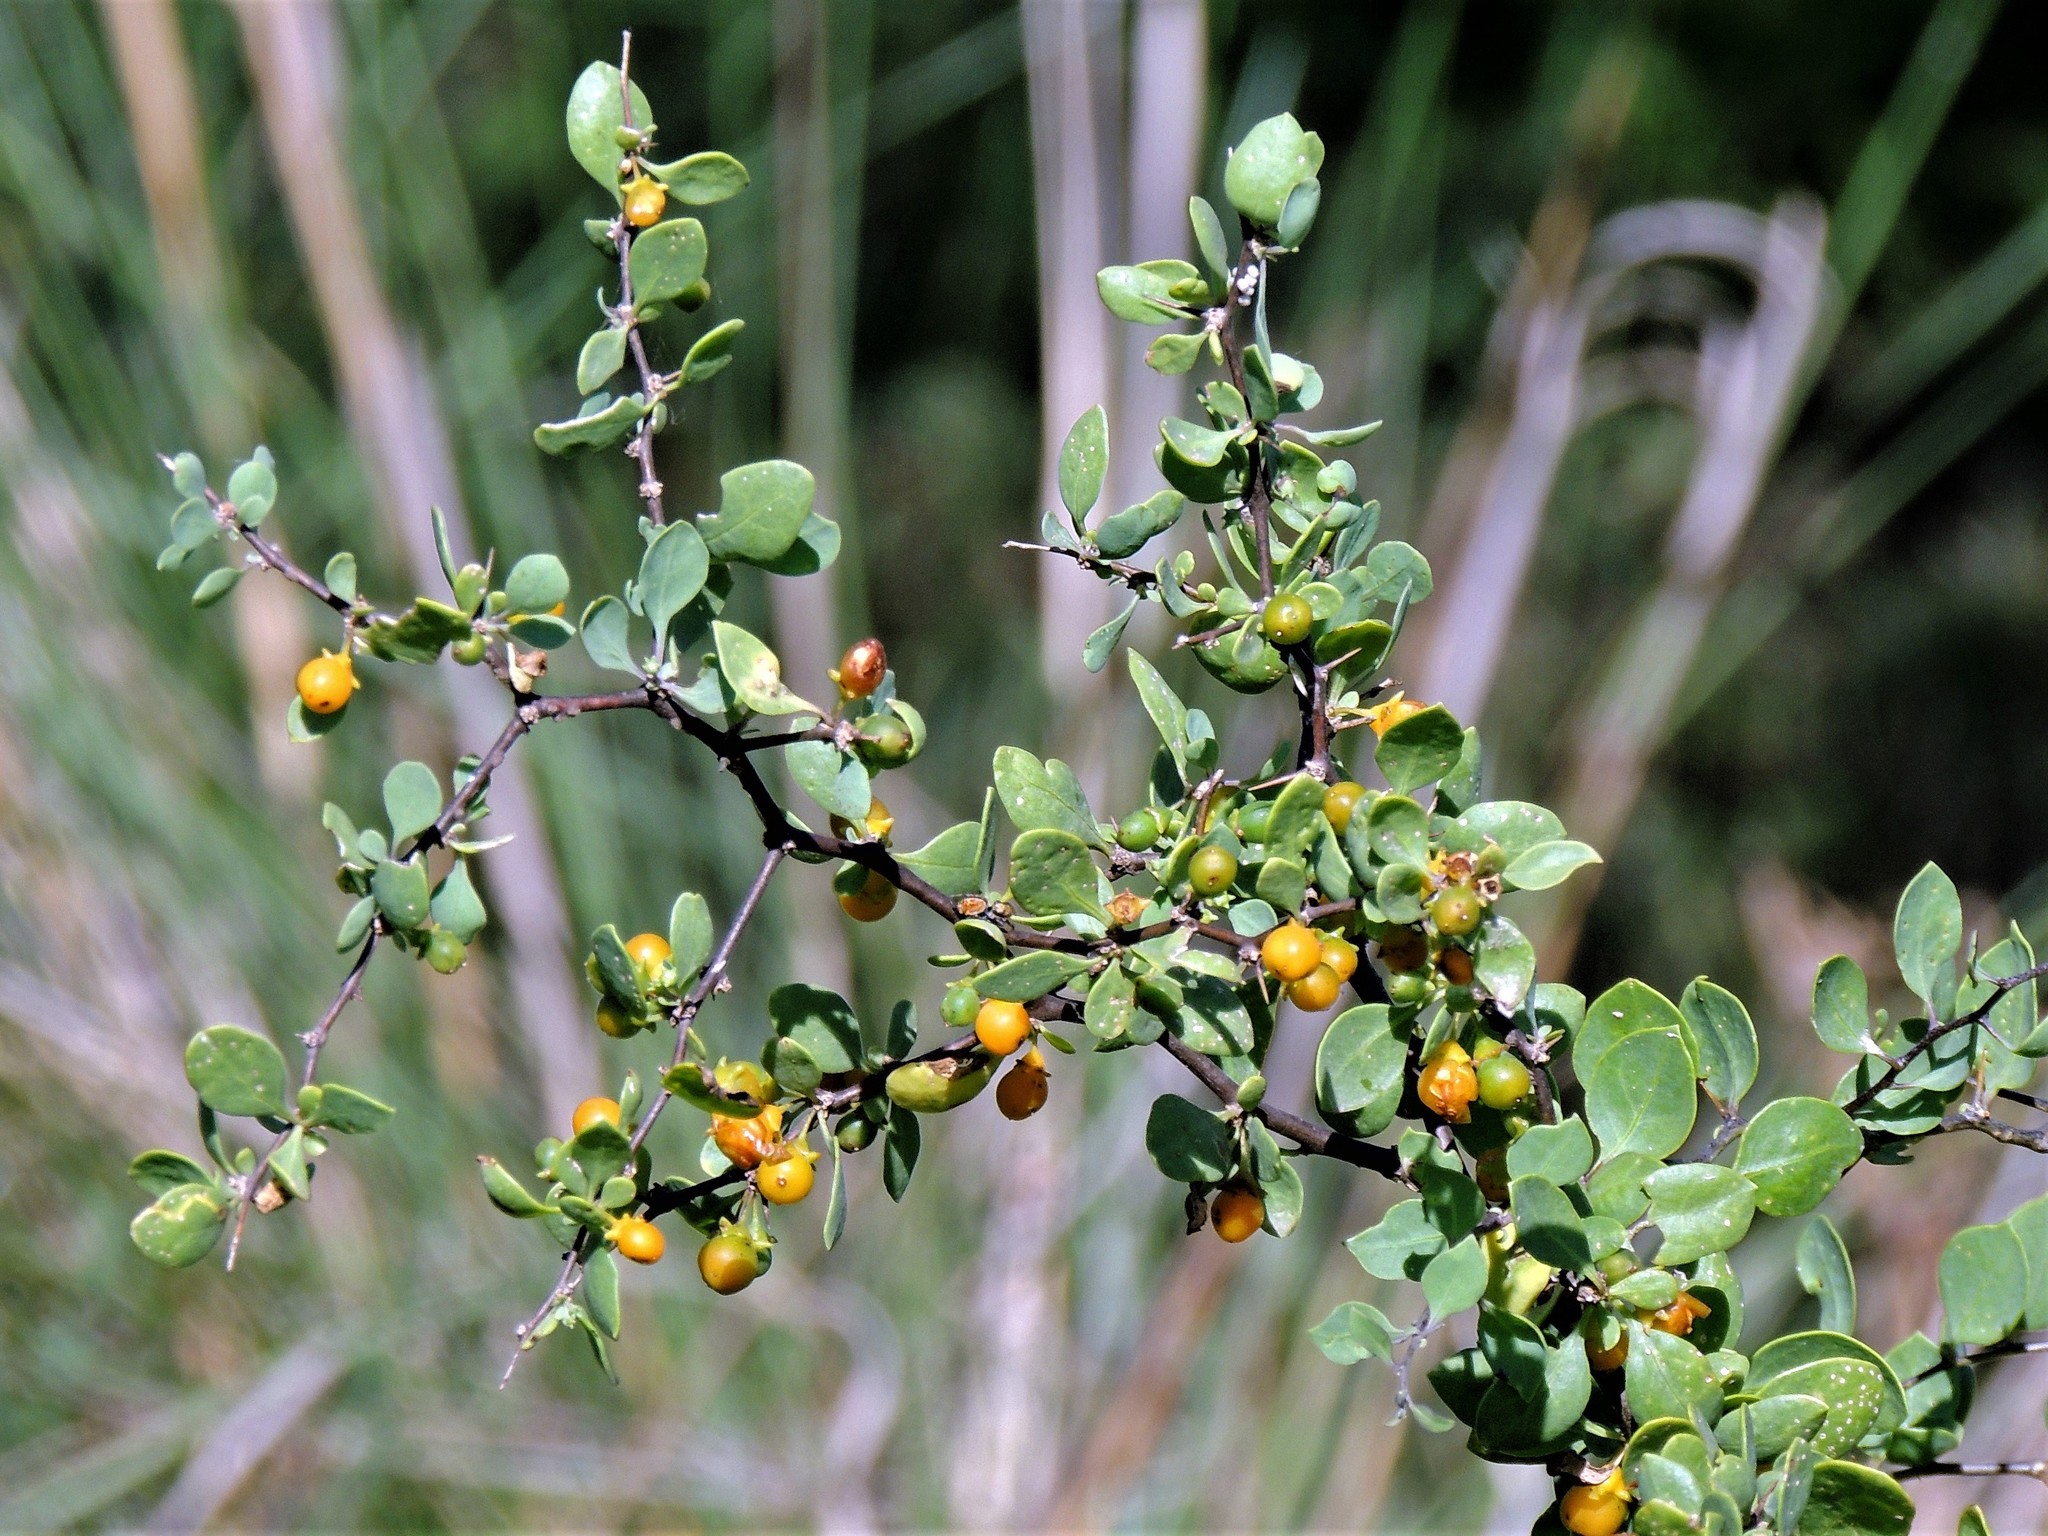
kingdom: Plantae
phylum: Tracheophyta
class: Magnoliopsida
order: Solanales
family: Solanaceae
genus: Lycium
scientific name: Lycium boerhaaviifolium
